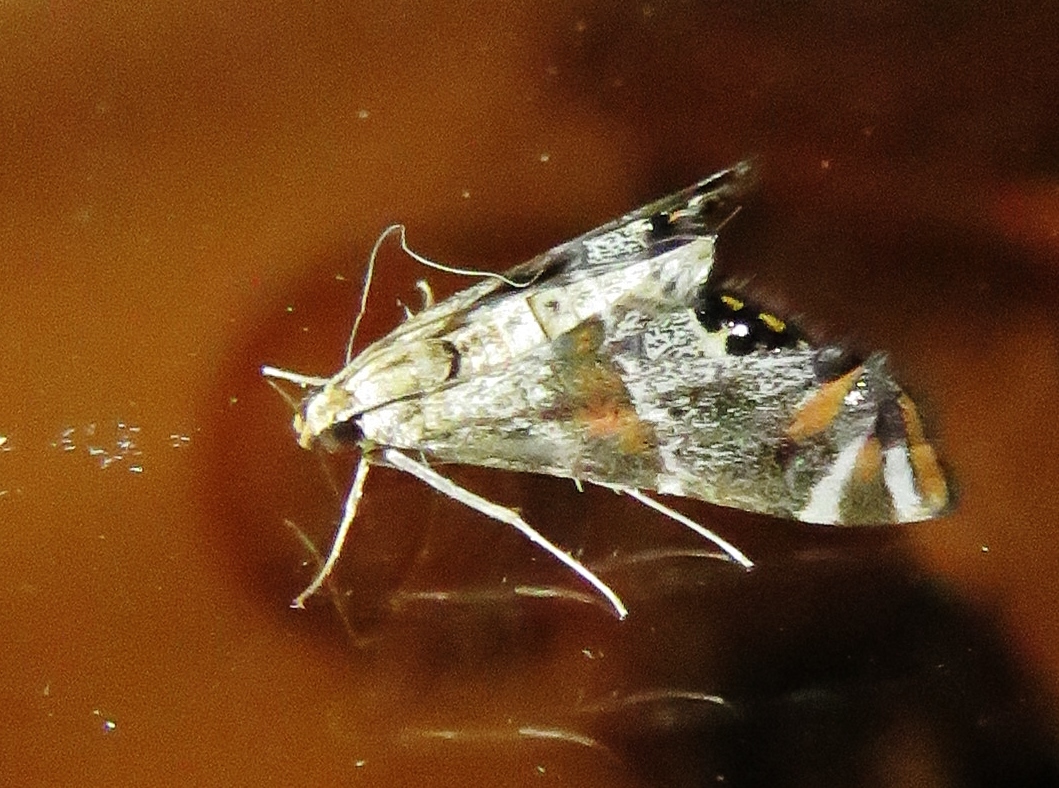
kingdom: Animalia
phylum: Arthropoda
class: Insecta
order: Lepidoptera
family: Crambidae
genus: Petrophila
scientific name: Petrophila jaliscalis
